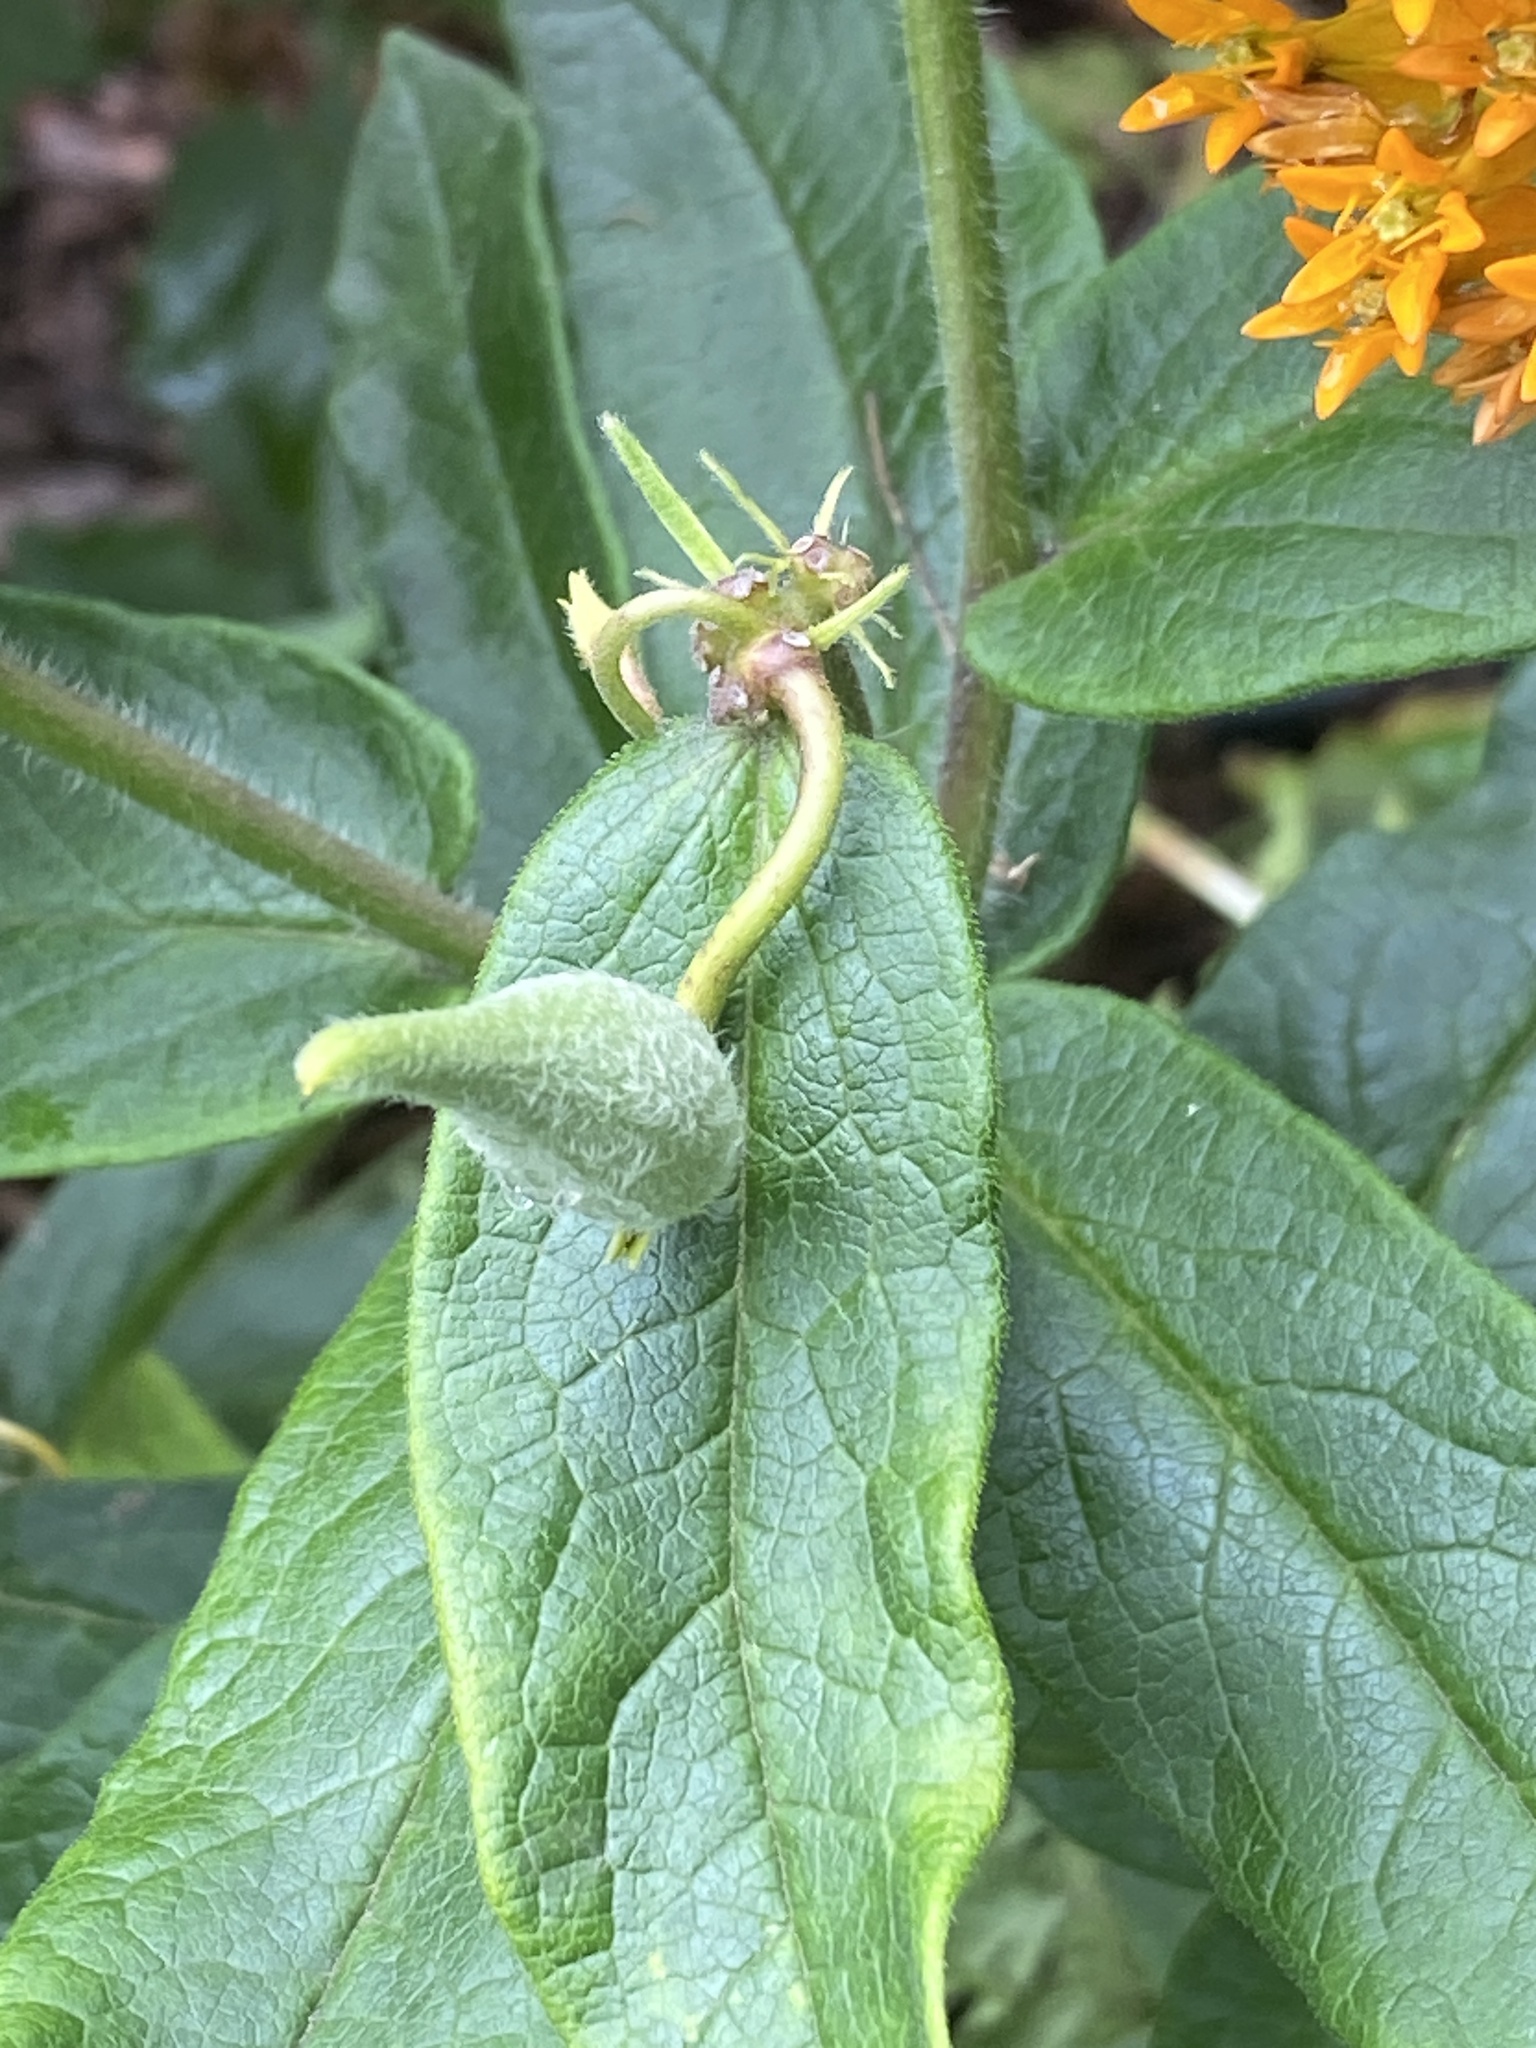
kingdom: Plantae
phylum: Tracheophyta
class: Magnoliopsida
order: Gentianales
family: Apocynaceae
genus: Asclepias
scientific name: Asclepias tuberosa
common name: Butterfly milkweed
